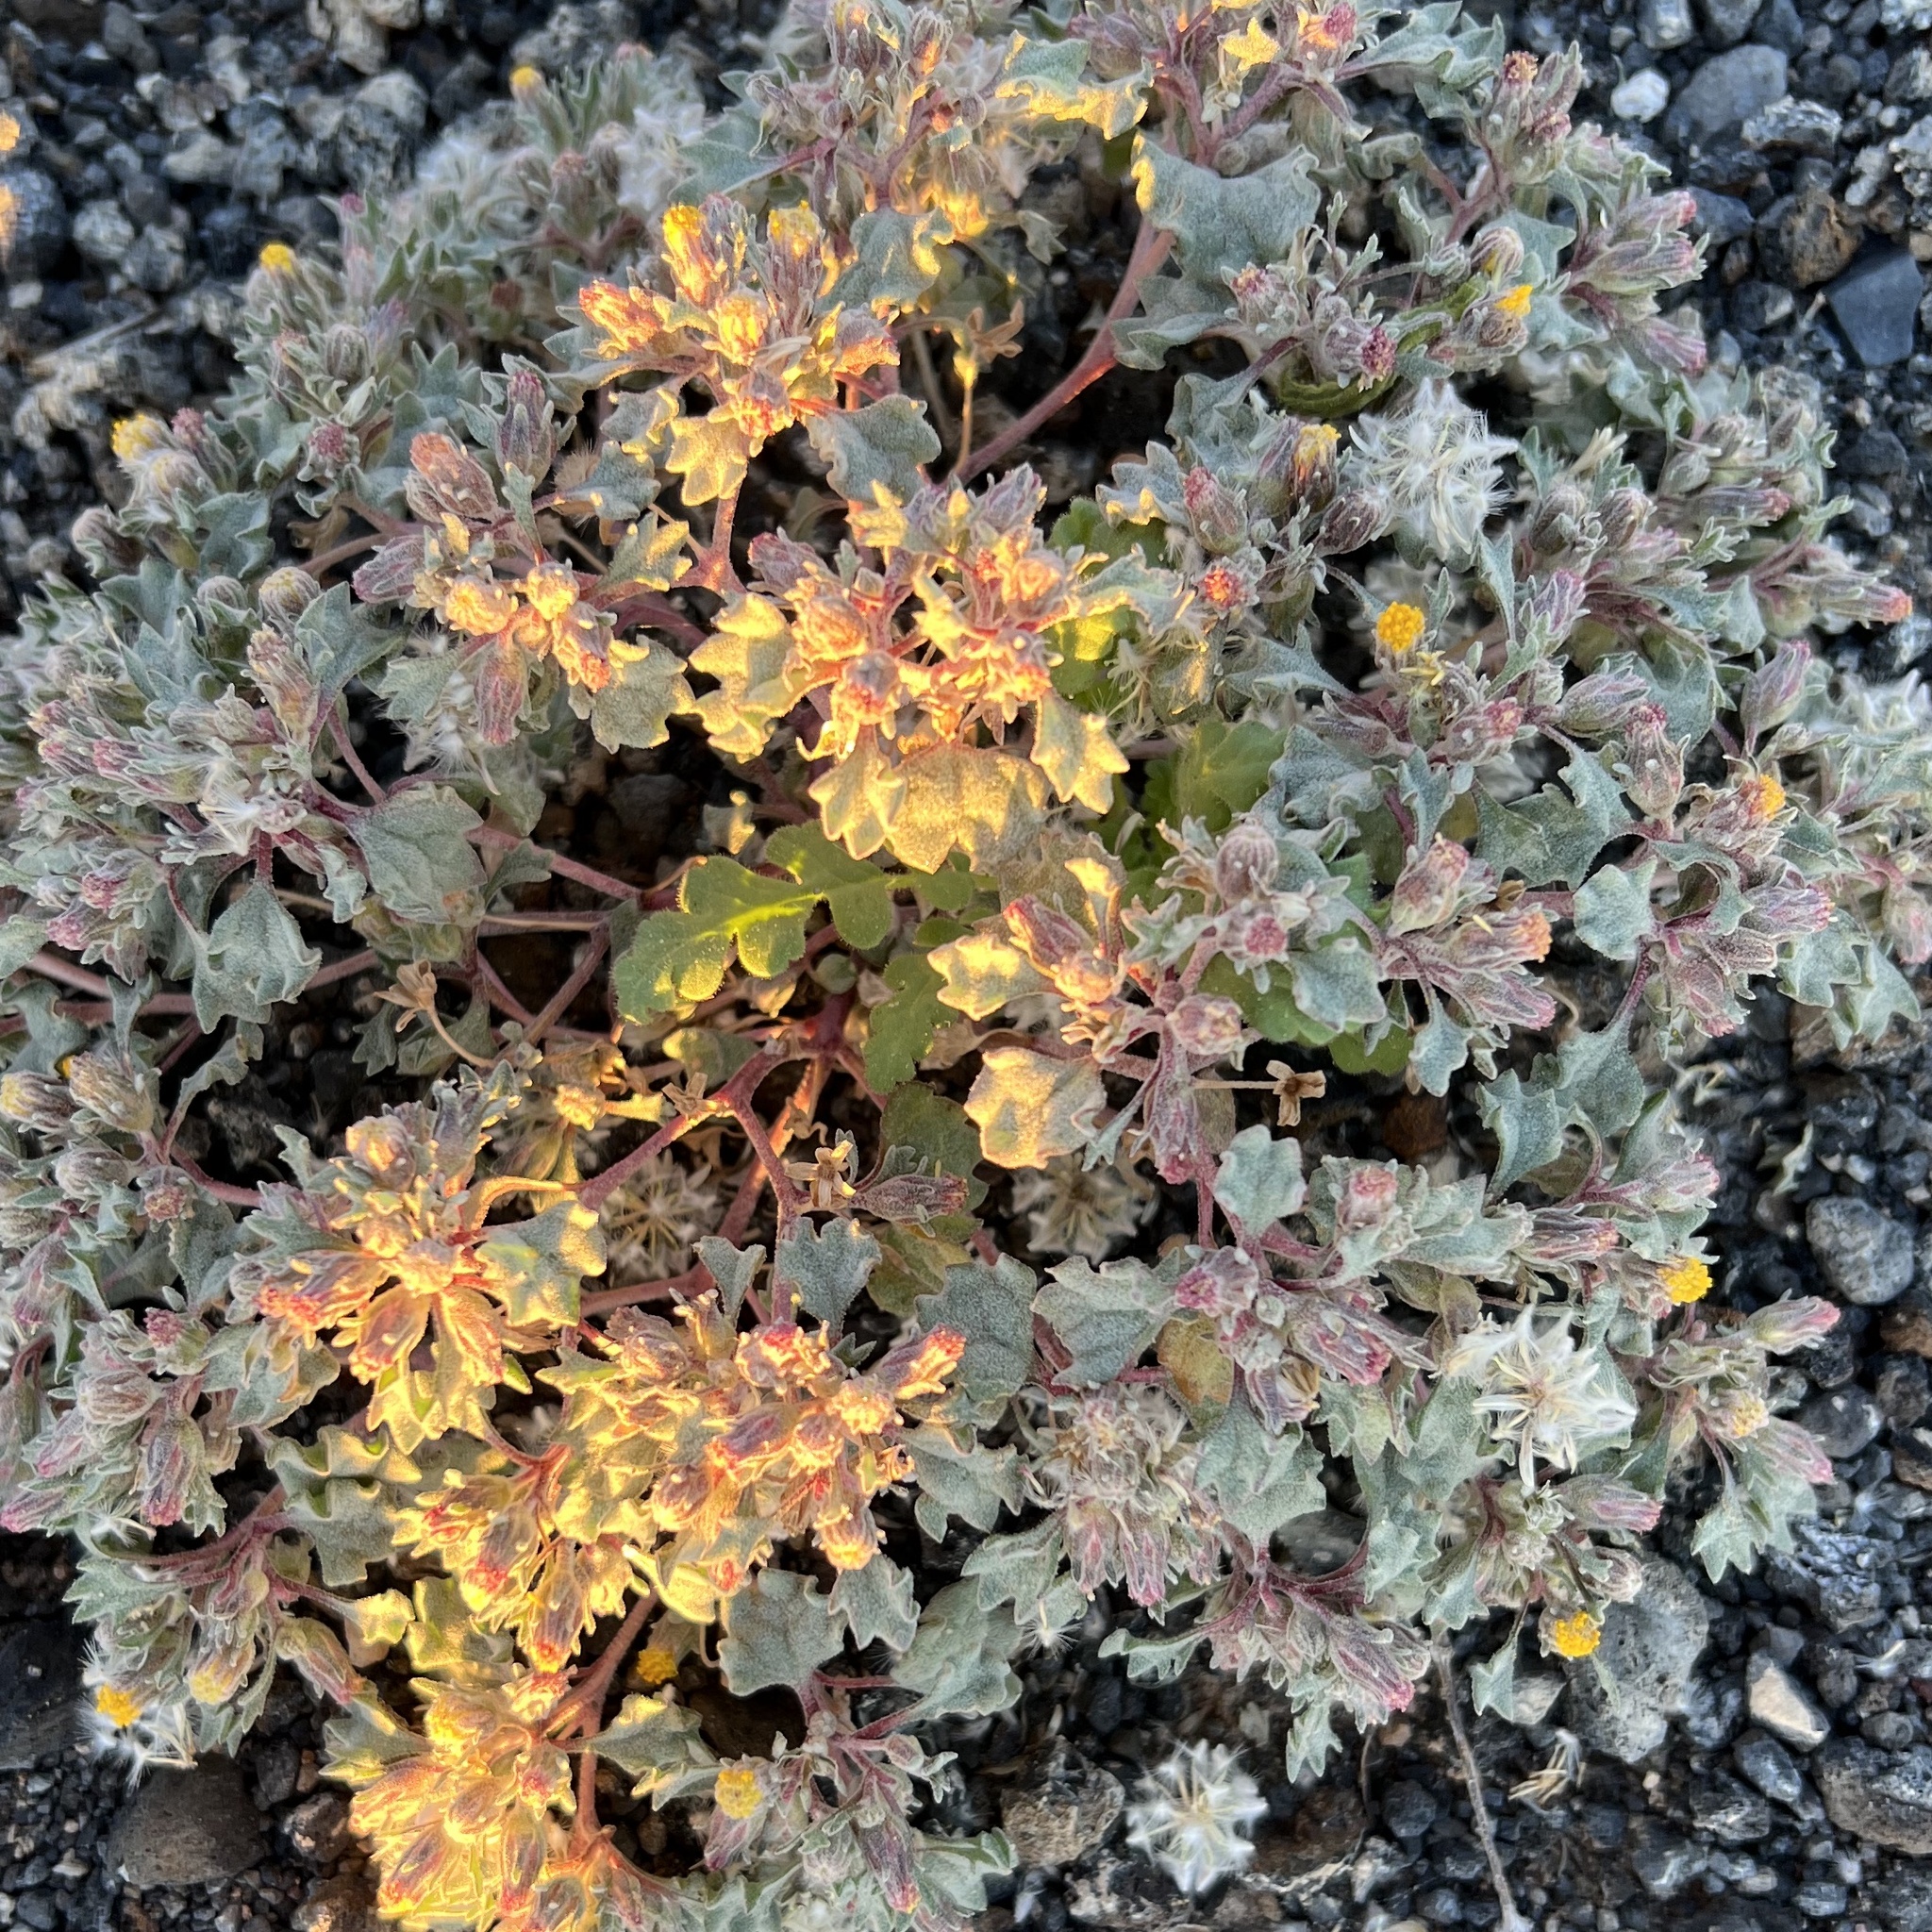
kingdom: Plantae
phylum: Tracheophyta
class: Magnoliopsida
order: Asterales
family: Asteraceae
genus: Psathyrotes
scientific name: Psathyrotes annua
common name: Mealy rosettes
